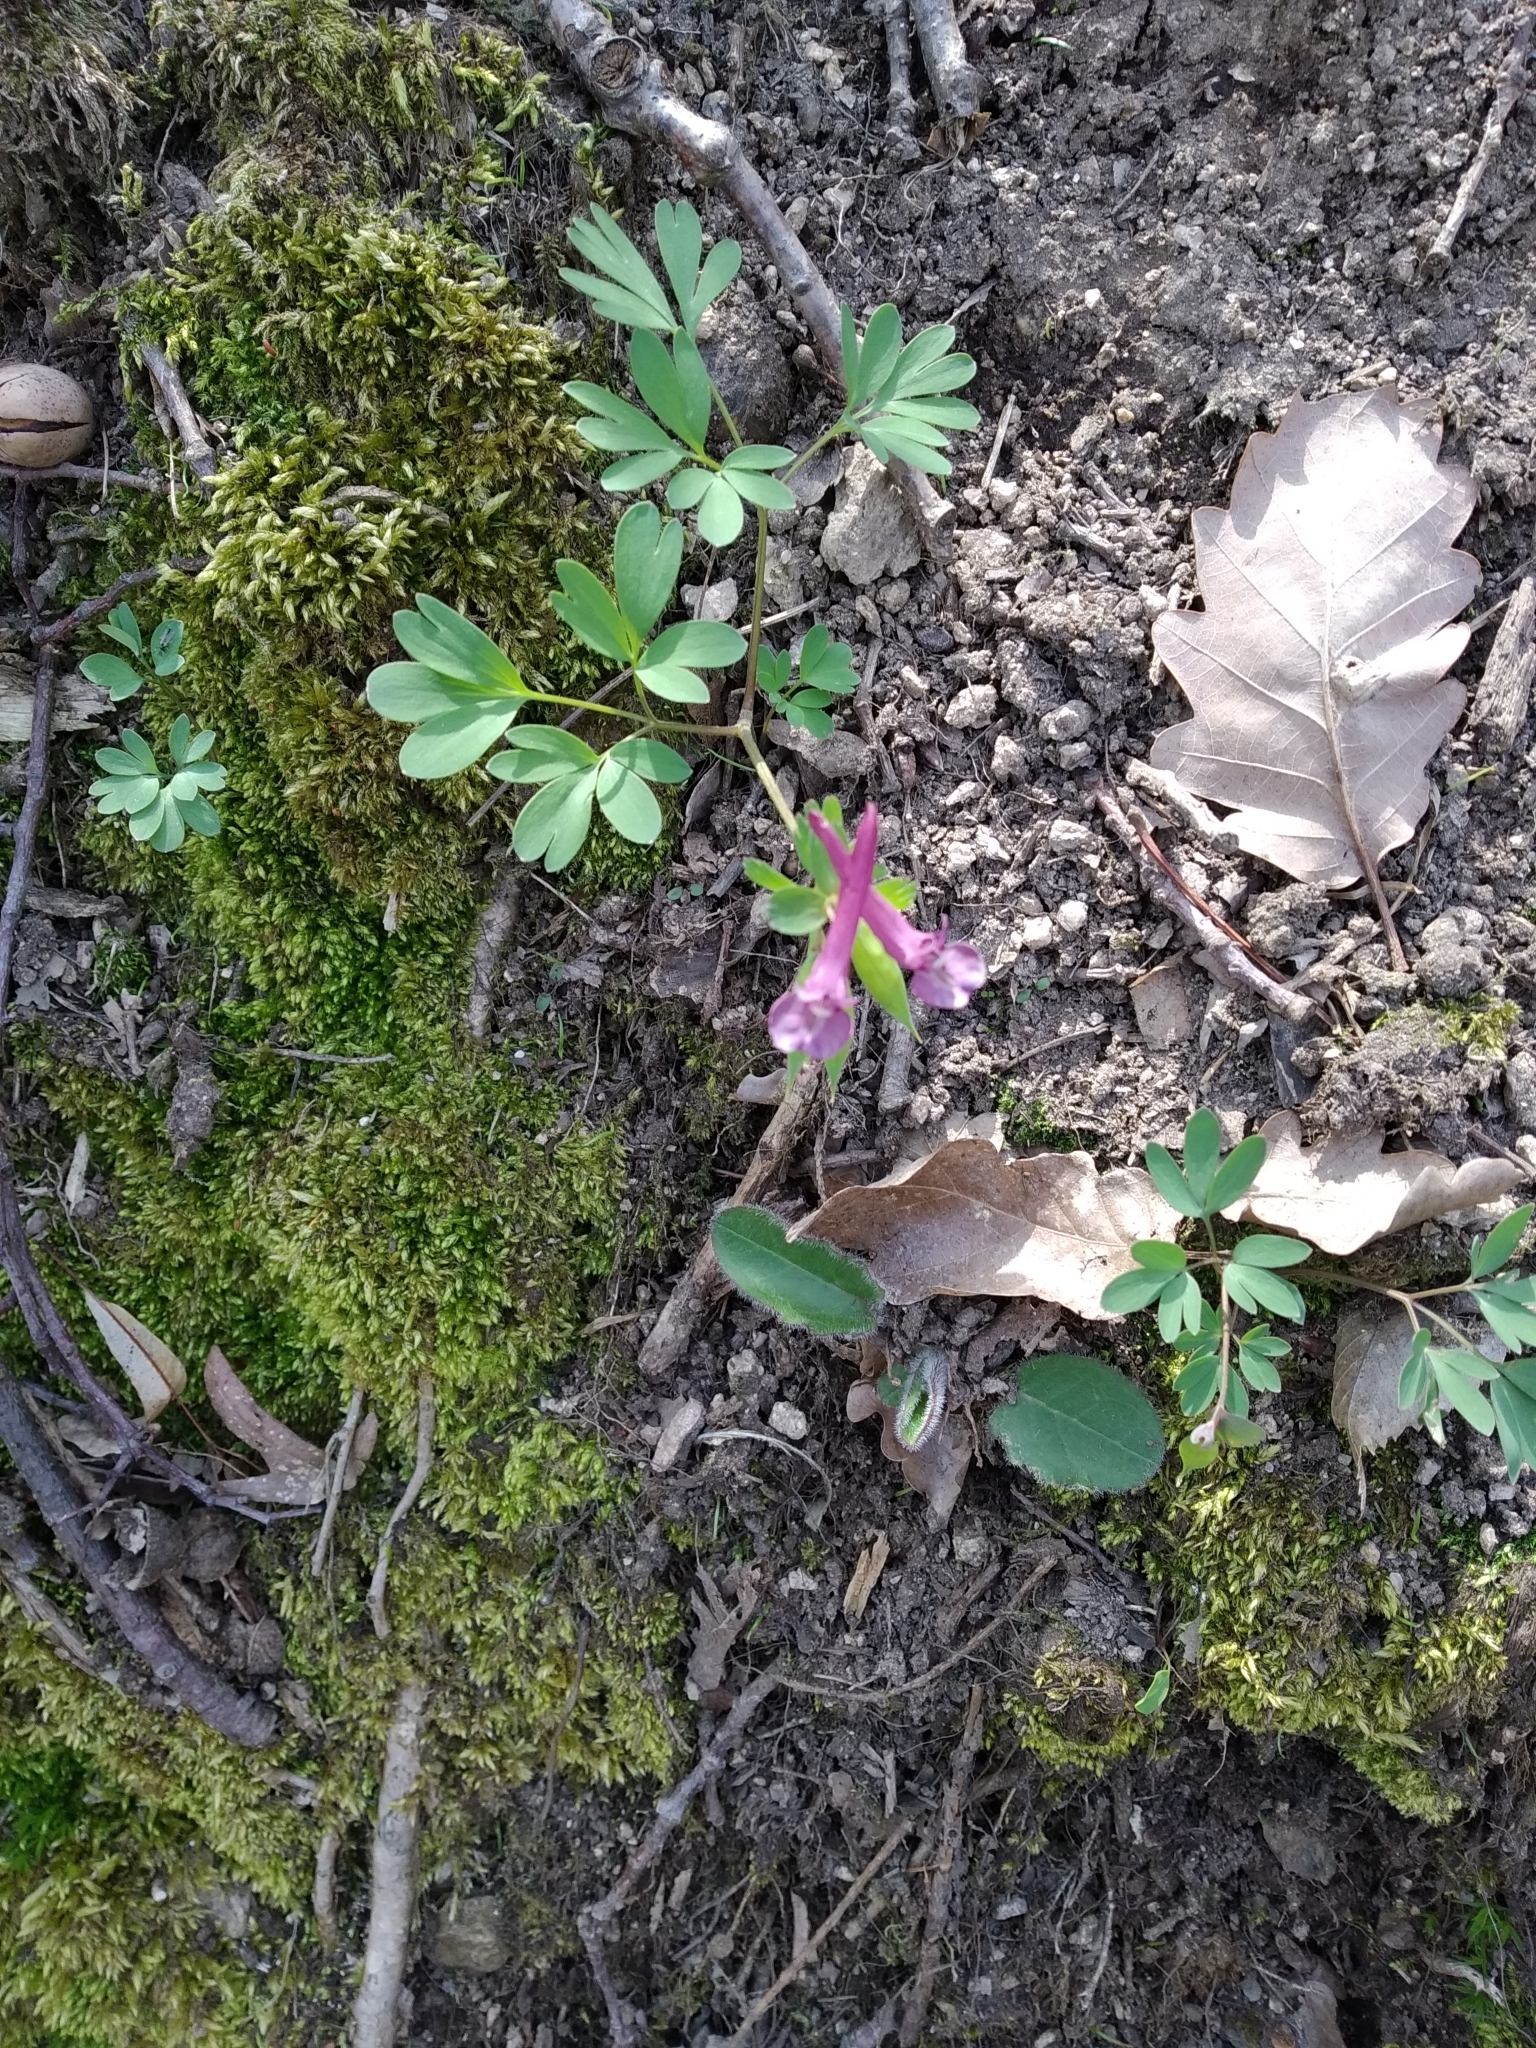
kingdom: Plantae
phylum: Tracheophyta
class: Magnoliopsida
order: Ranunculales
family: Papaveraceae
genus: Corydalis
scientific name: Corydalis solida
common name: Bird-in-a-bush
